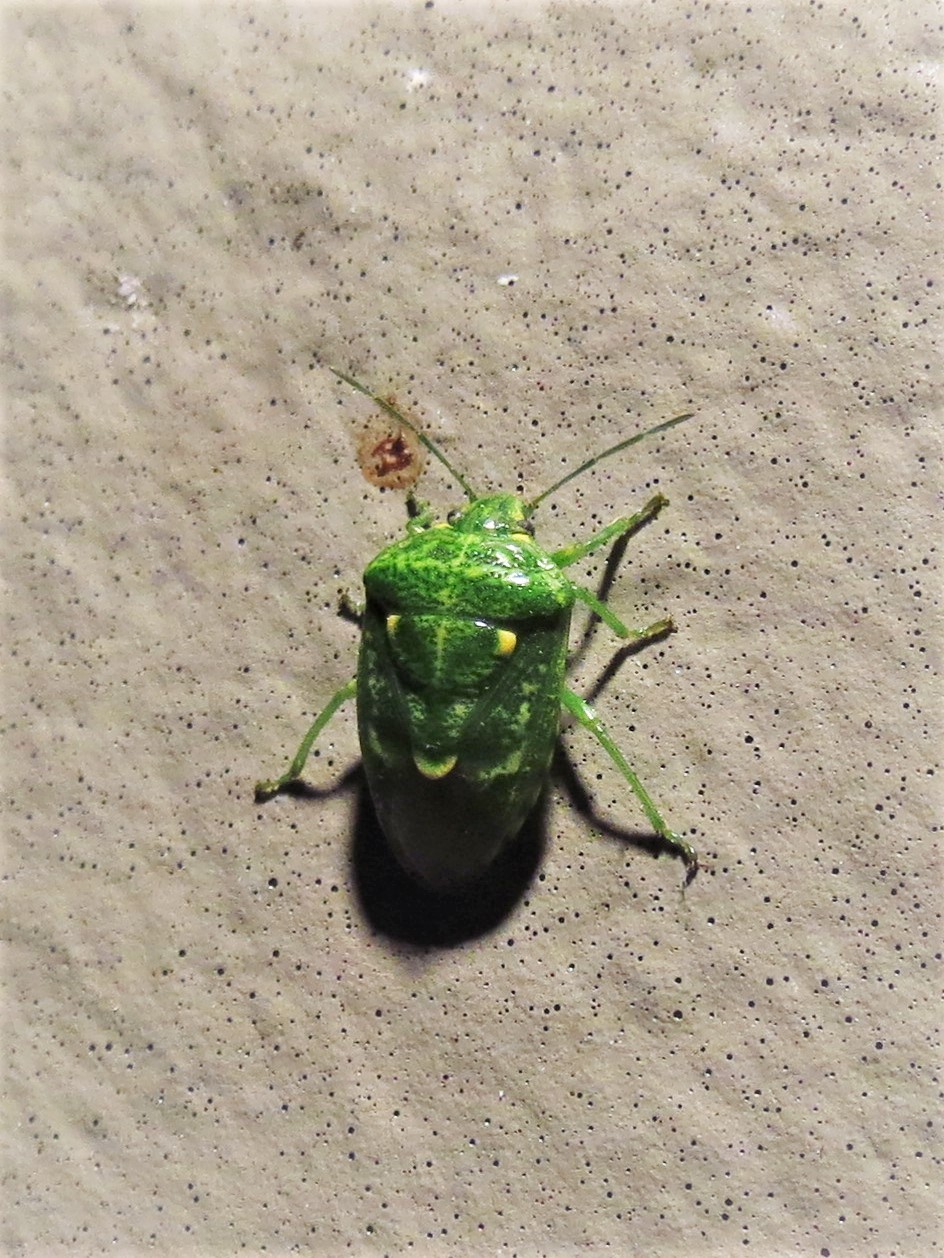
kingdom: Animalia
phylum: Arthropoda
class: Insecta
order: Hemiptera
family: Pentatomidae
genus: Banasa
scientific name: Banasa euchlora
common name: Cedar berry bug
